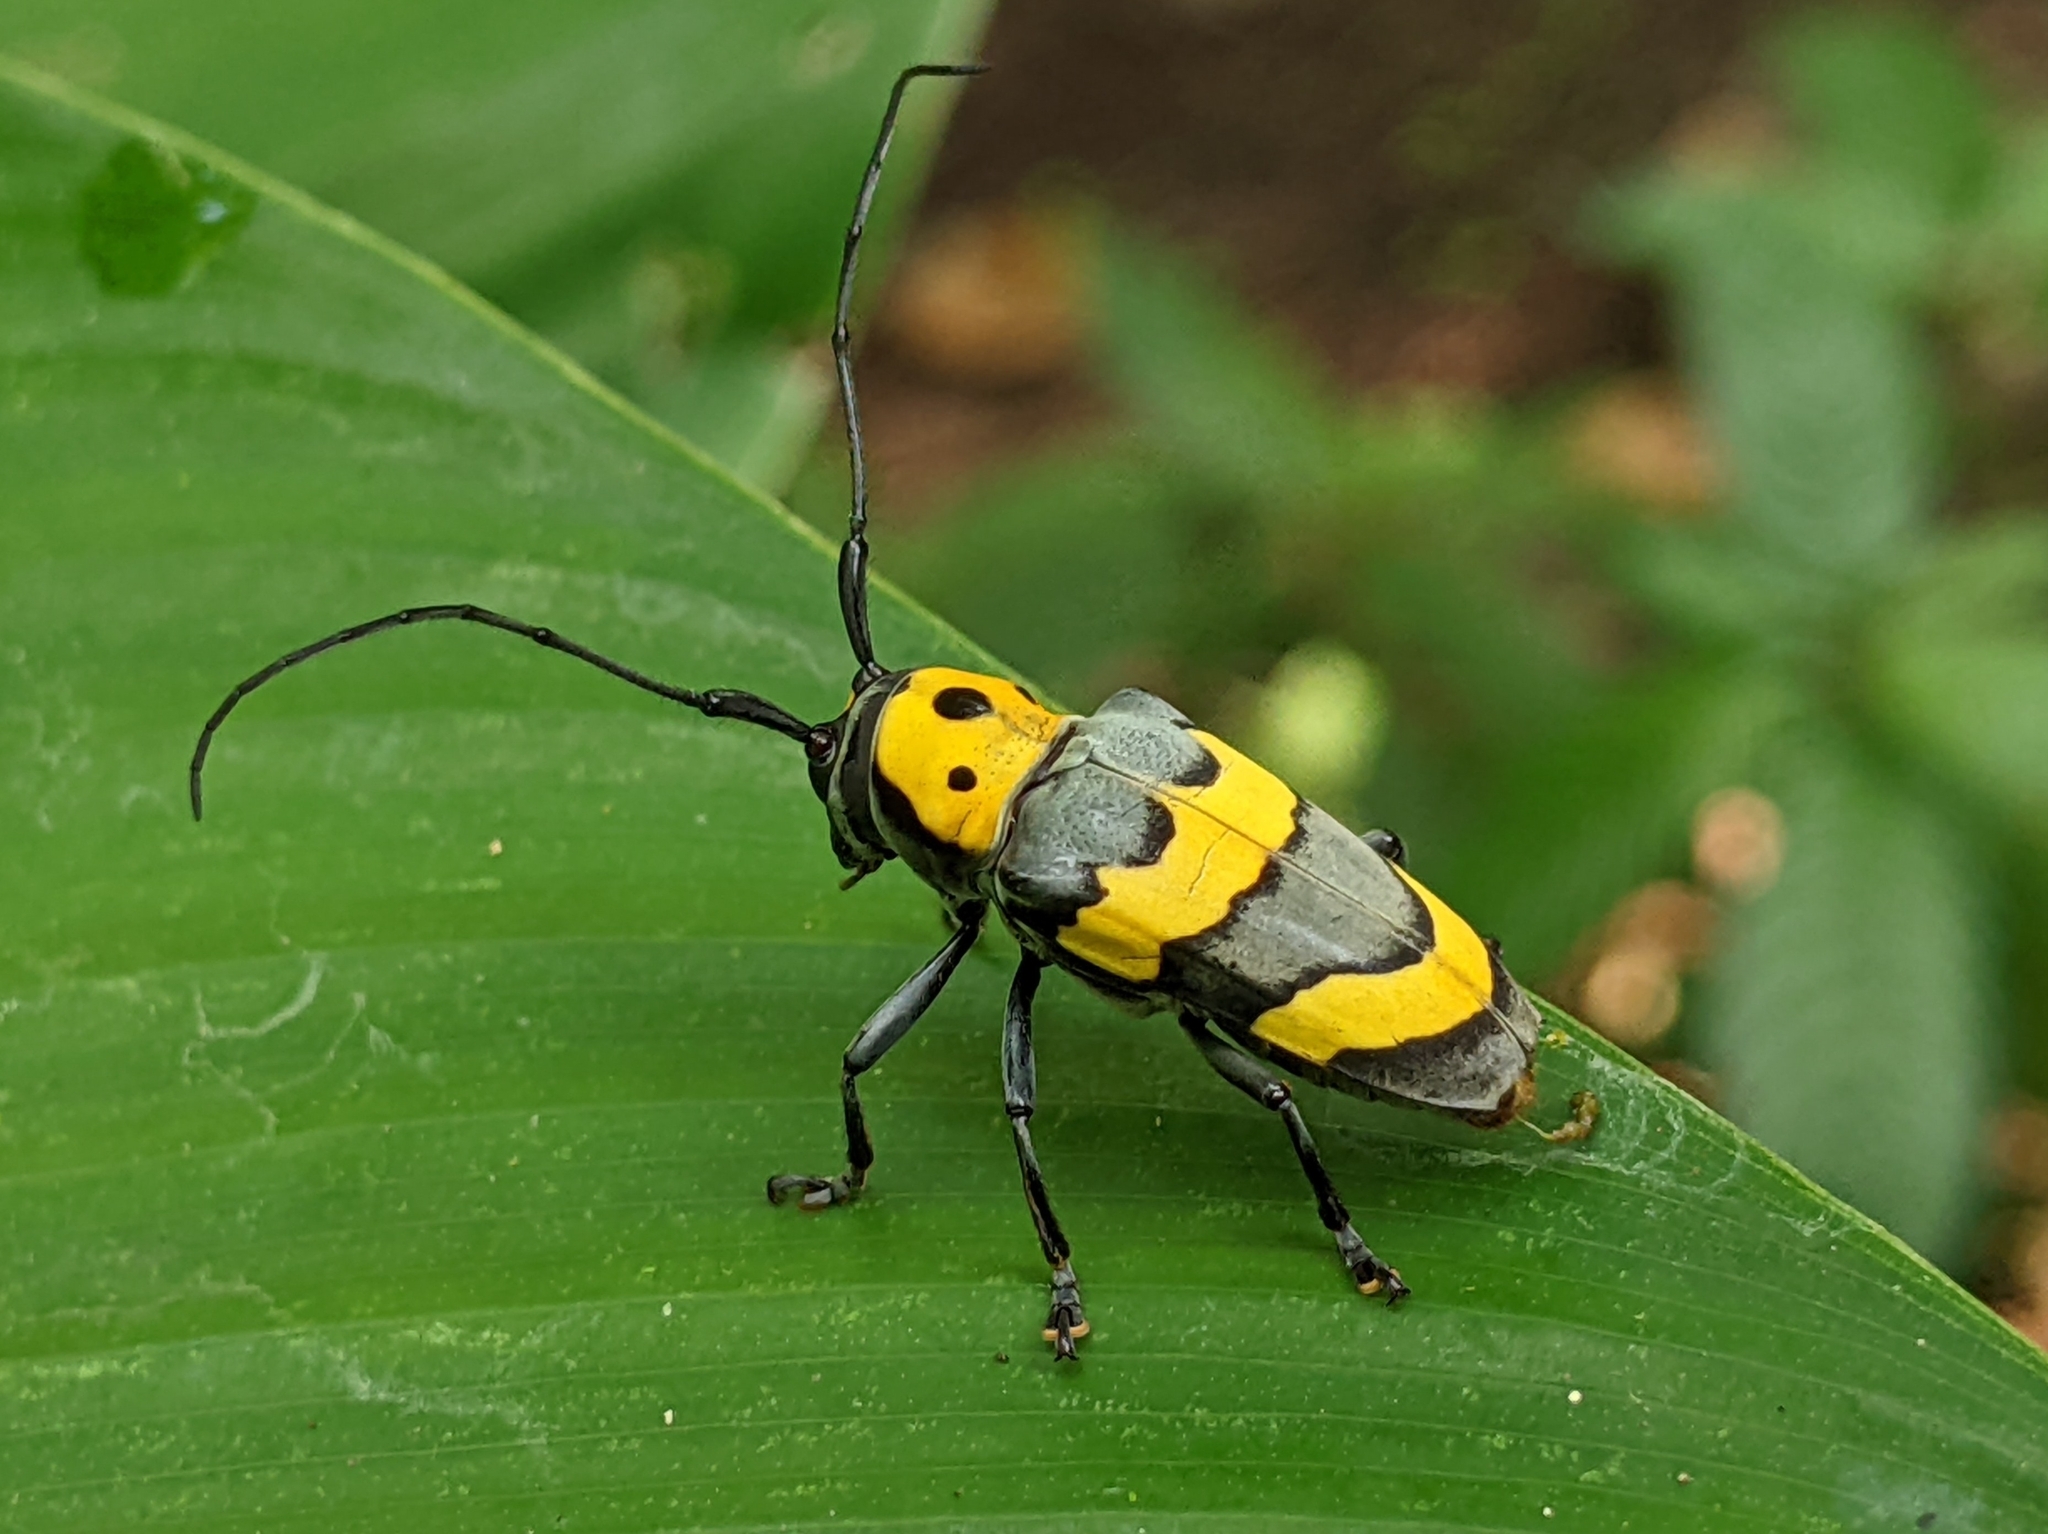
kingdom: Animalia
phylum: Arthropoda
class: Insecta
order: Coleoptera
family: Cerambycidae
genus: Oedudes
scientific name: Oedudes bifasciatus
